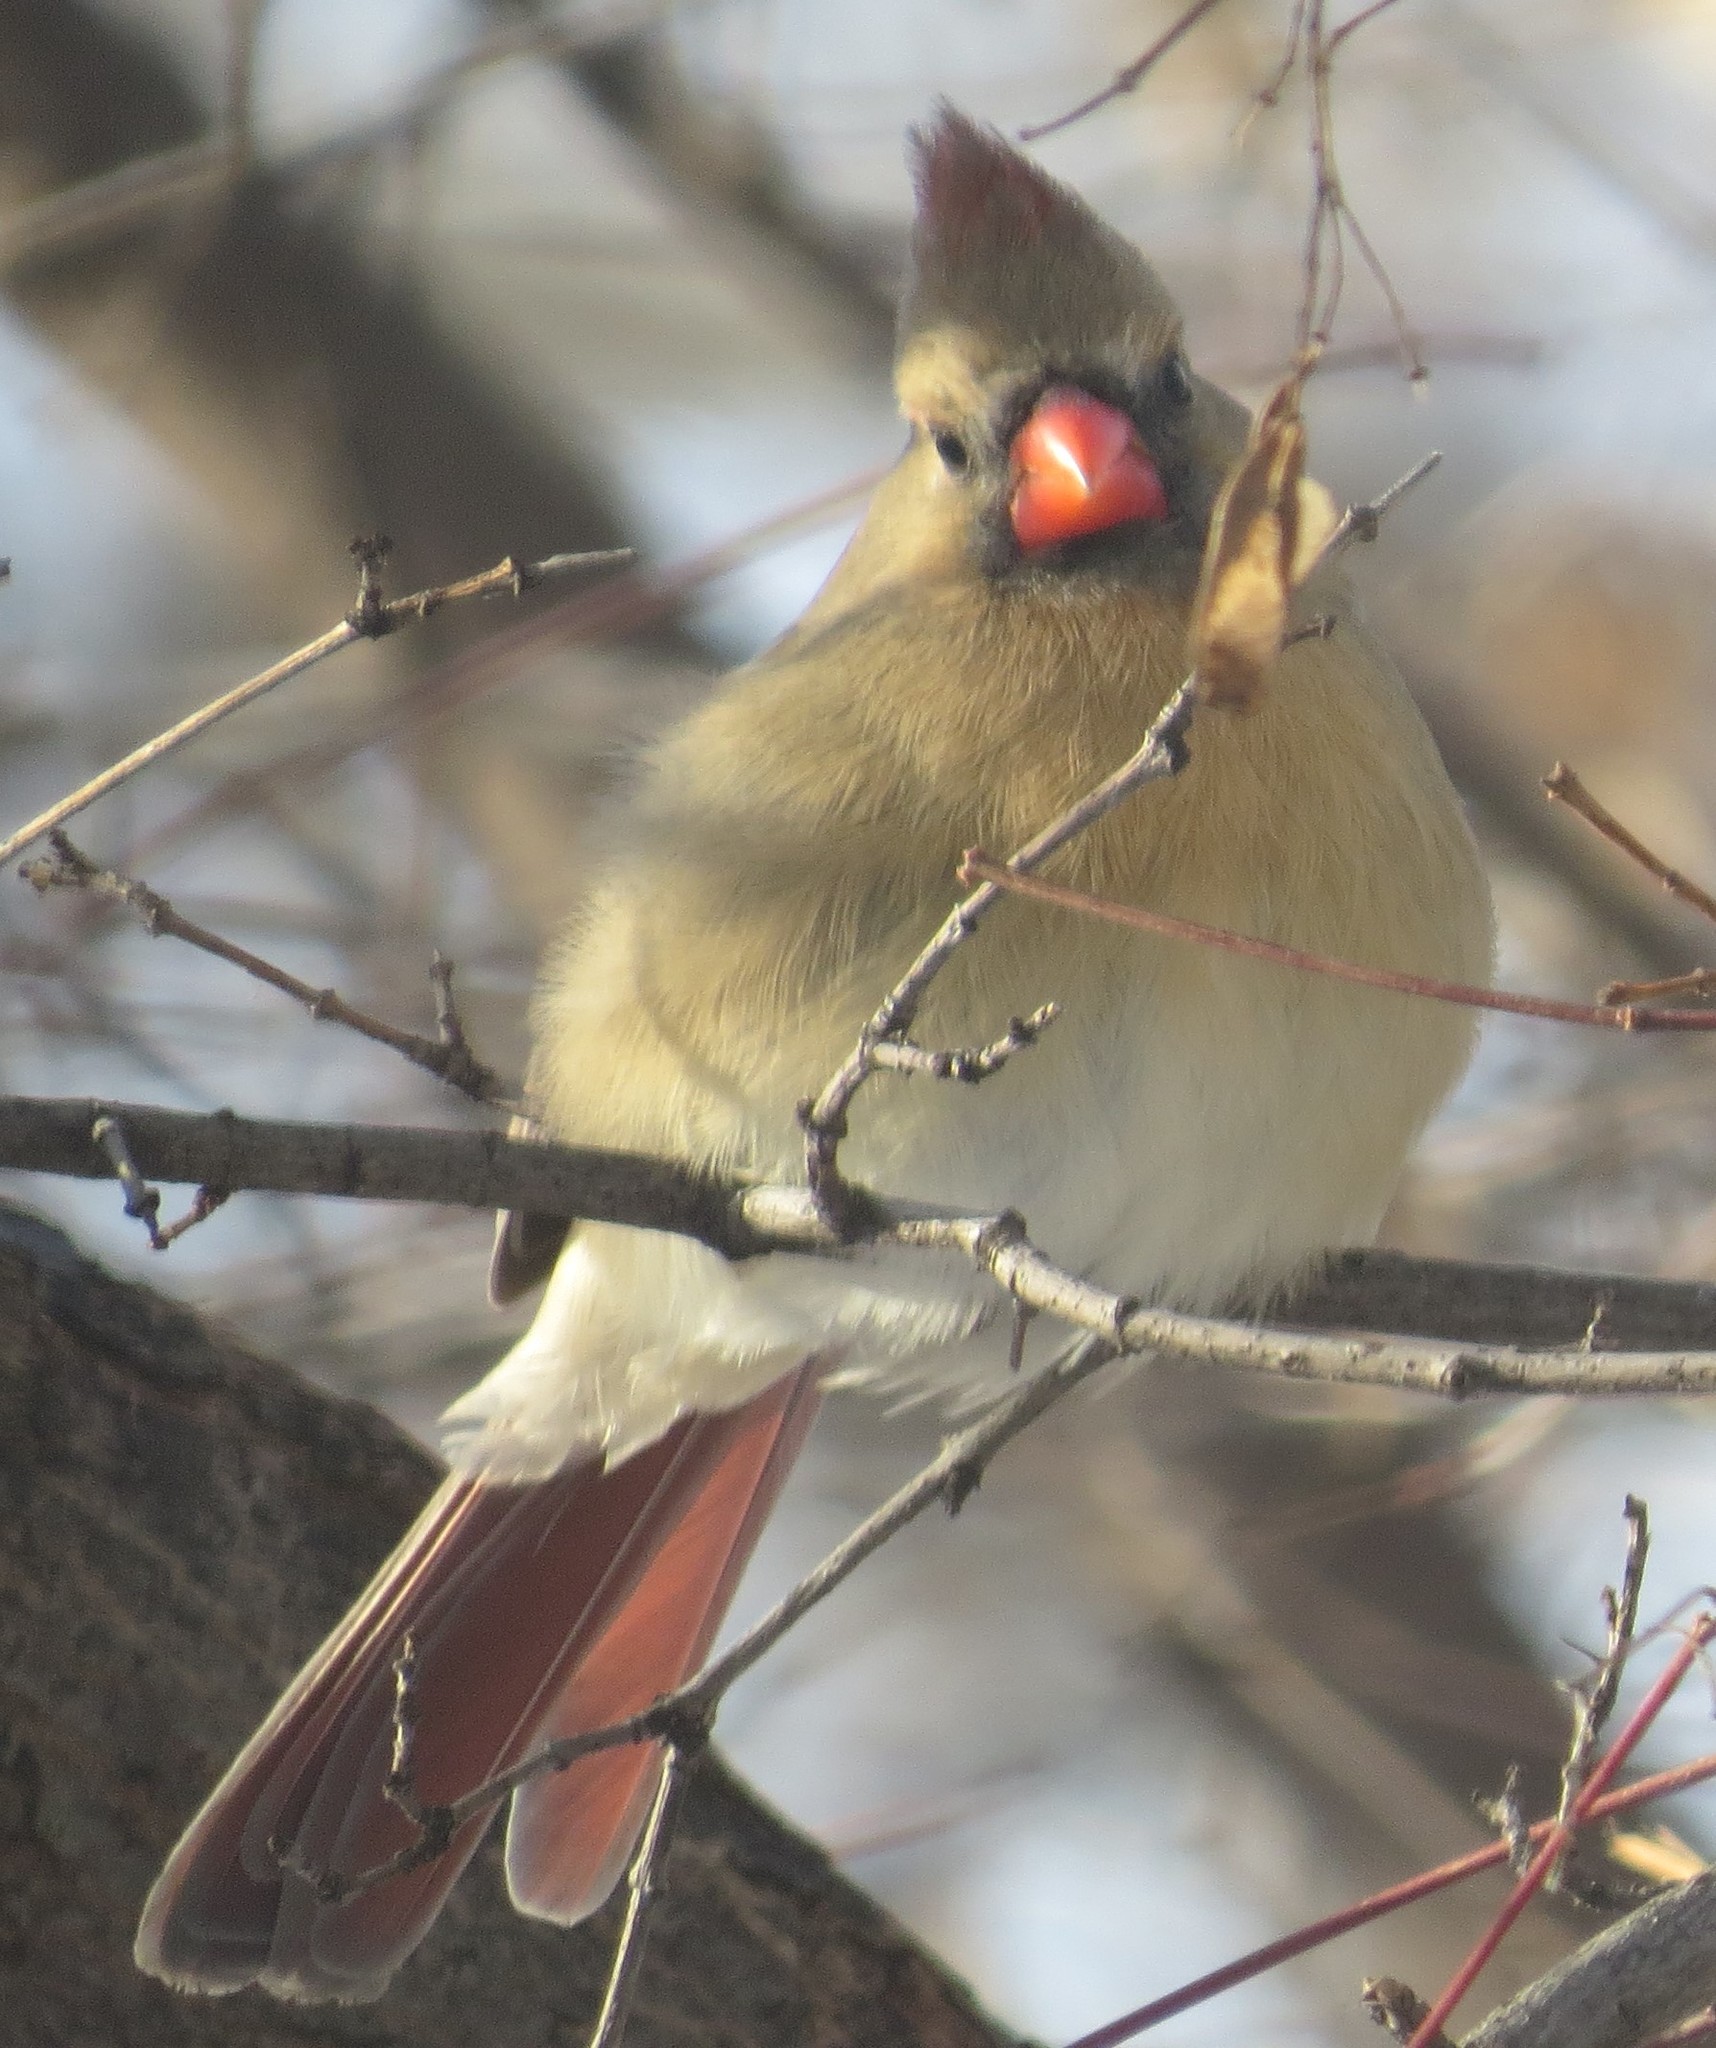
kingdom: Animalia
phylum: Chordata
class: Aves
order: Passeriformes
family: Cardinalidae
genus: Cardinalis
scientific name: Cardinalis cardinalis
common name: Northern cardinal
